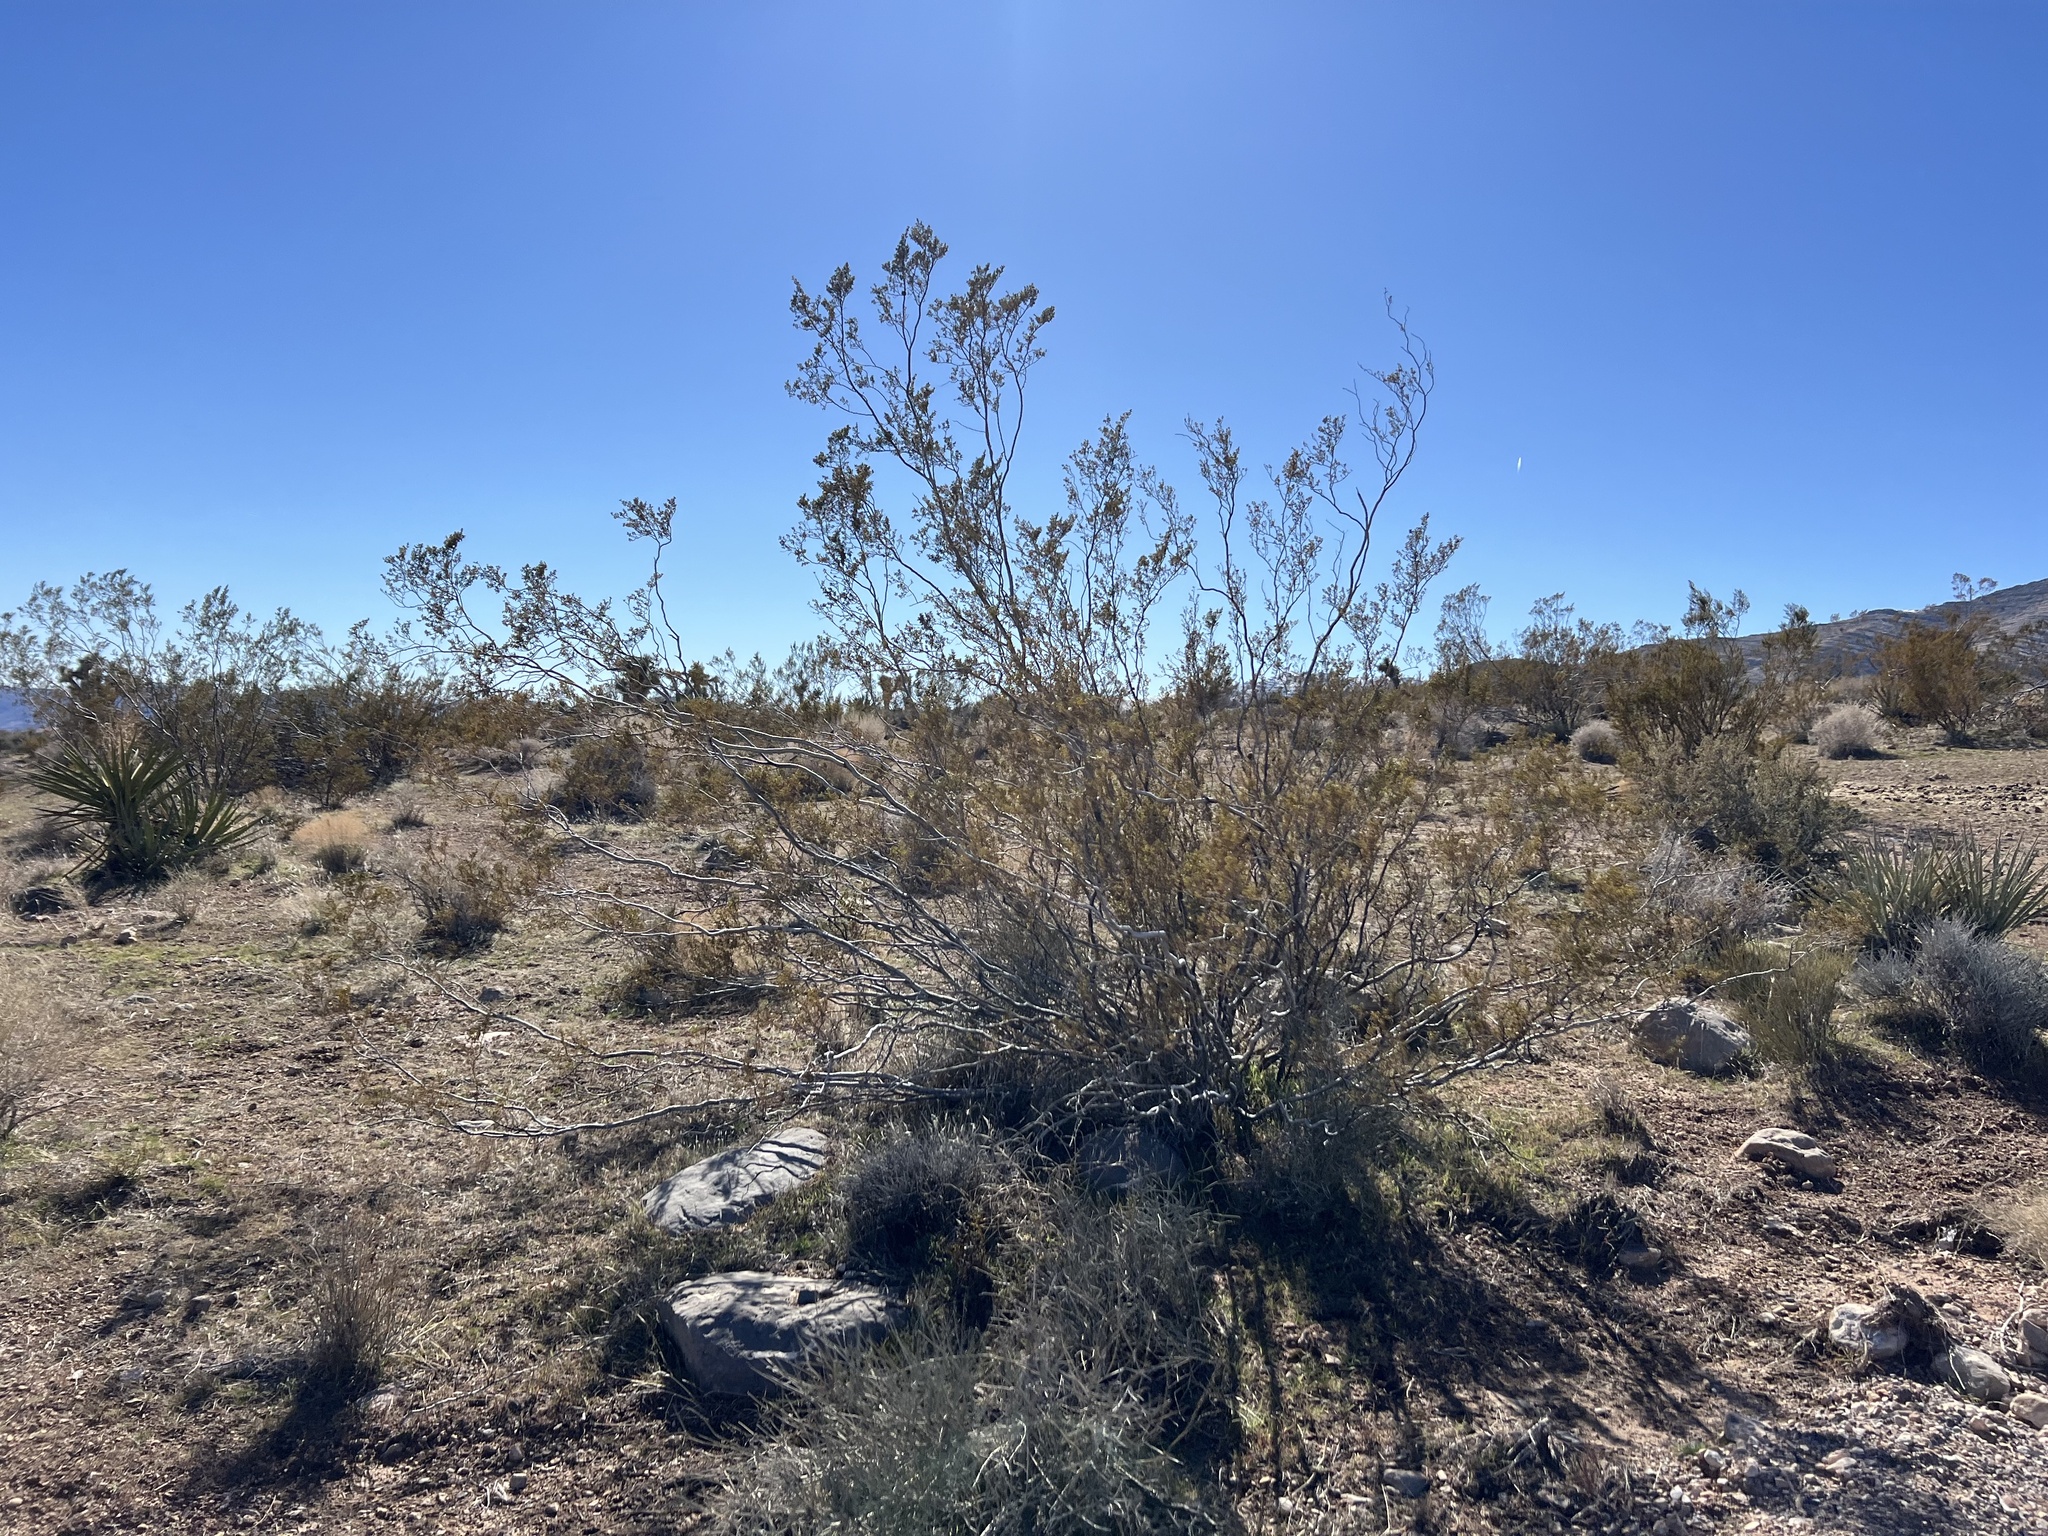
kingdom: Plantae
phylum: Tracheophyta
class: Magnoliopsida
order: Zygophyllales
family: Zygophyllaceae
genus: Larrea
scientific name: Larrea tridentata
